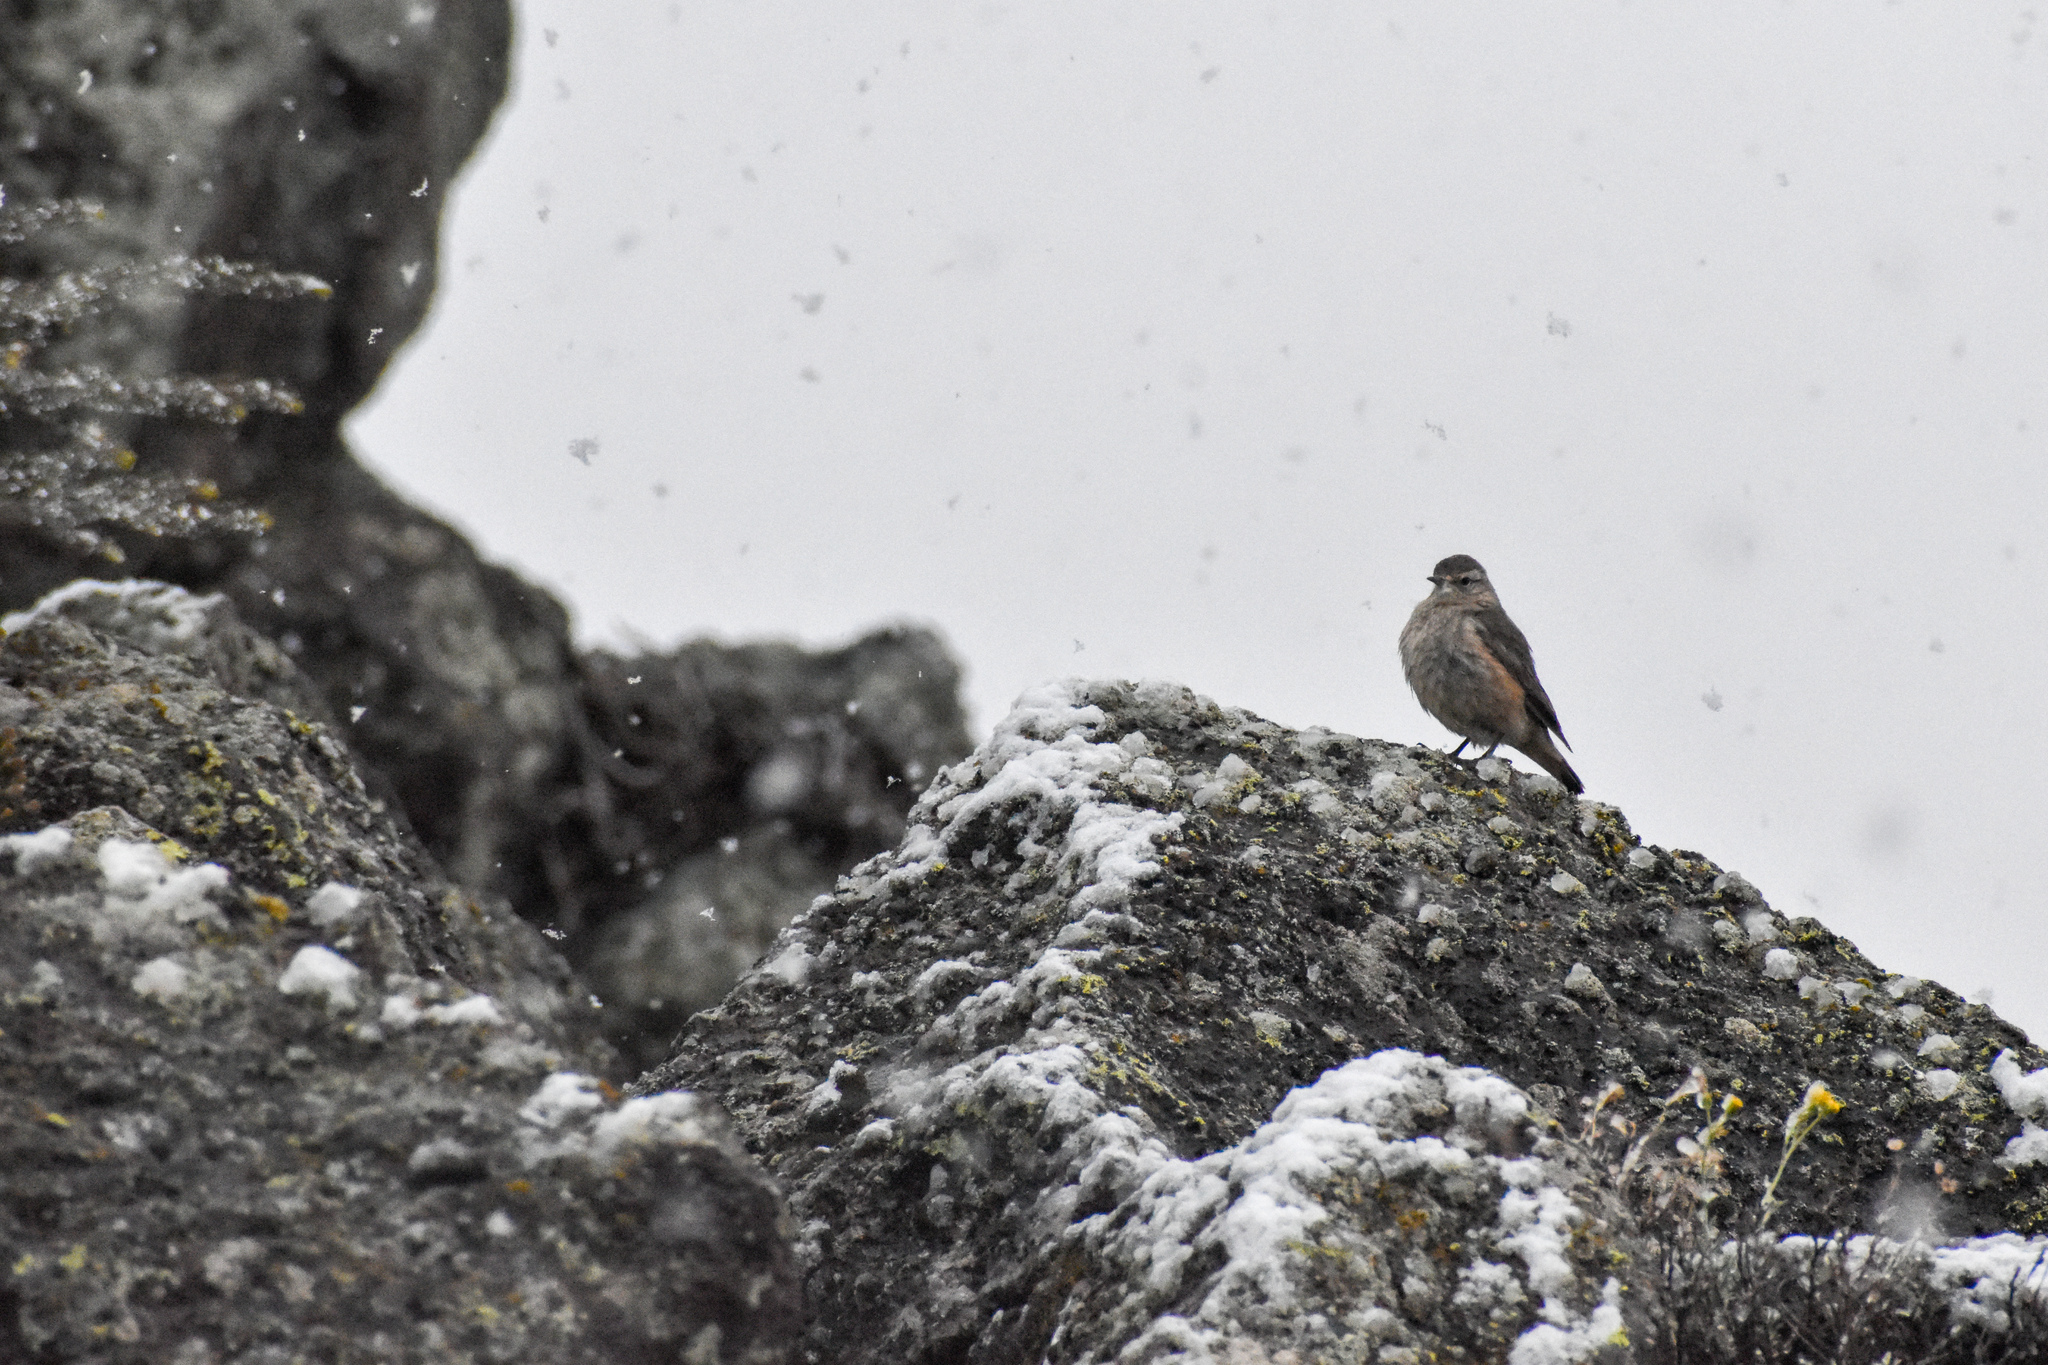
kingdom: Animalia
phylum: Chordata
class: Aves
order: Passeriformes
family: Furnariidae
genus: Geositta
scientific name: Geositta rufipennis
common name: Rufous-banded miner
